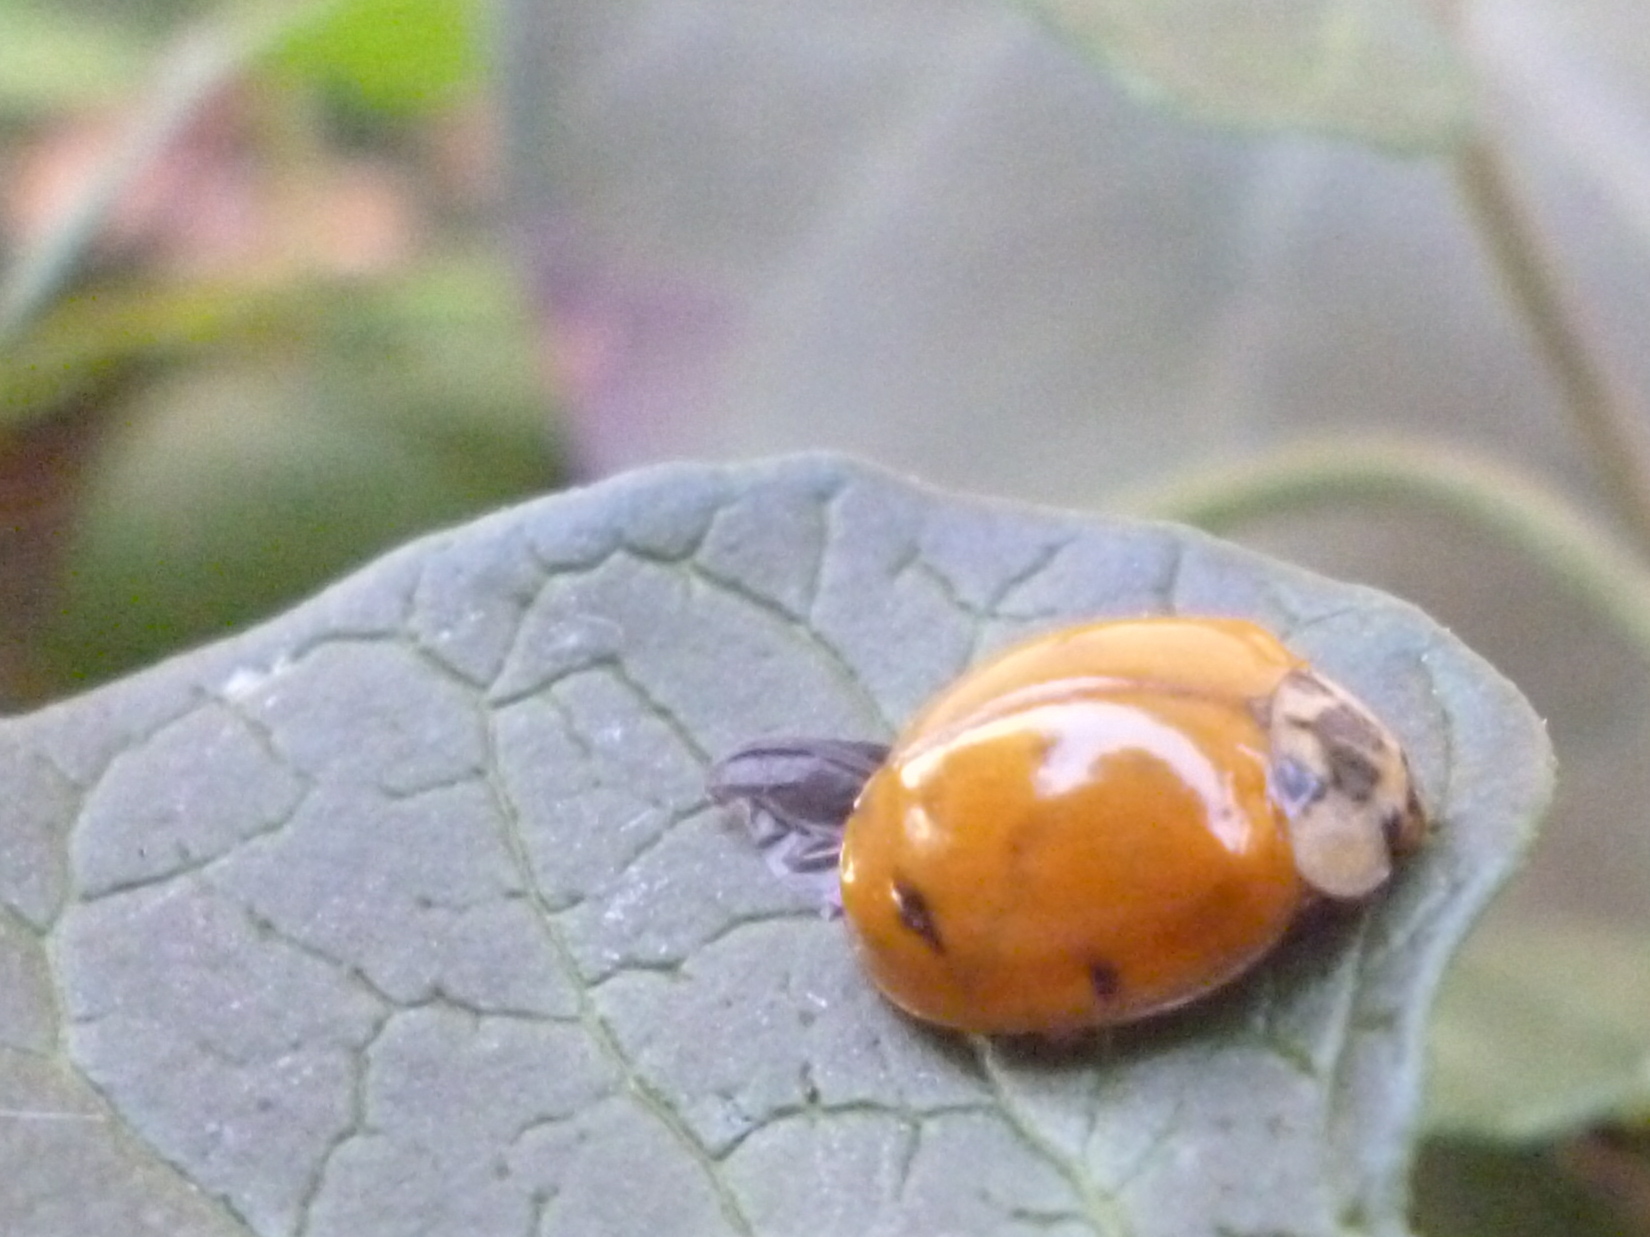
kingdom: Animalia
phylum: Arthropoda
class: Insecta
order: Coleoptera
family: Coccinellidae
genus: Harmonia
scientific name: Harmonia axyridis
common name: Harlequin ladybird
